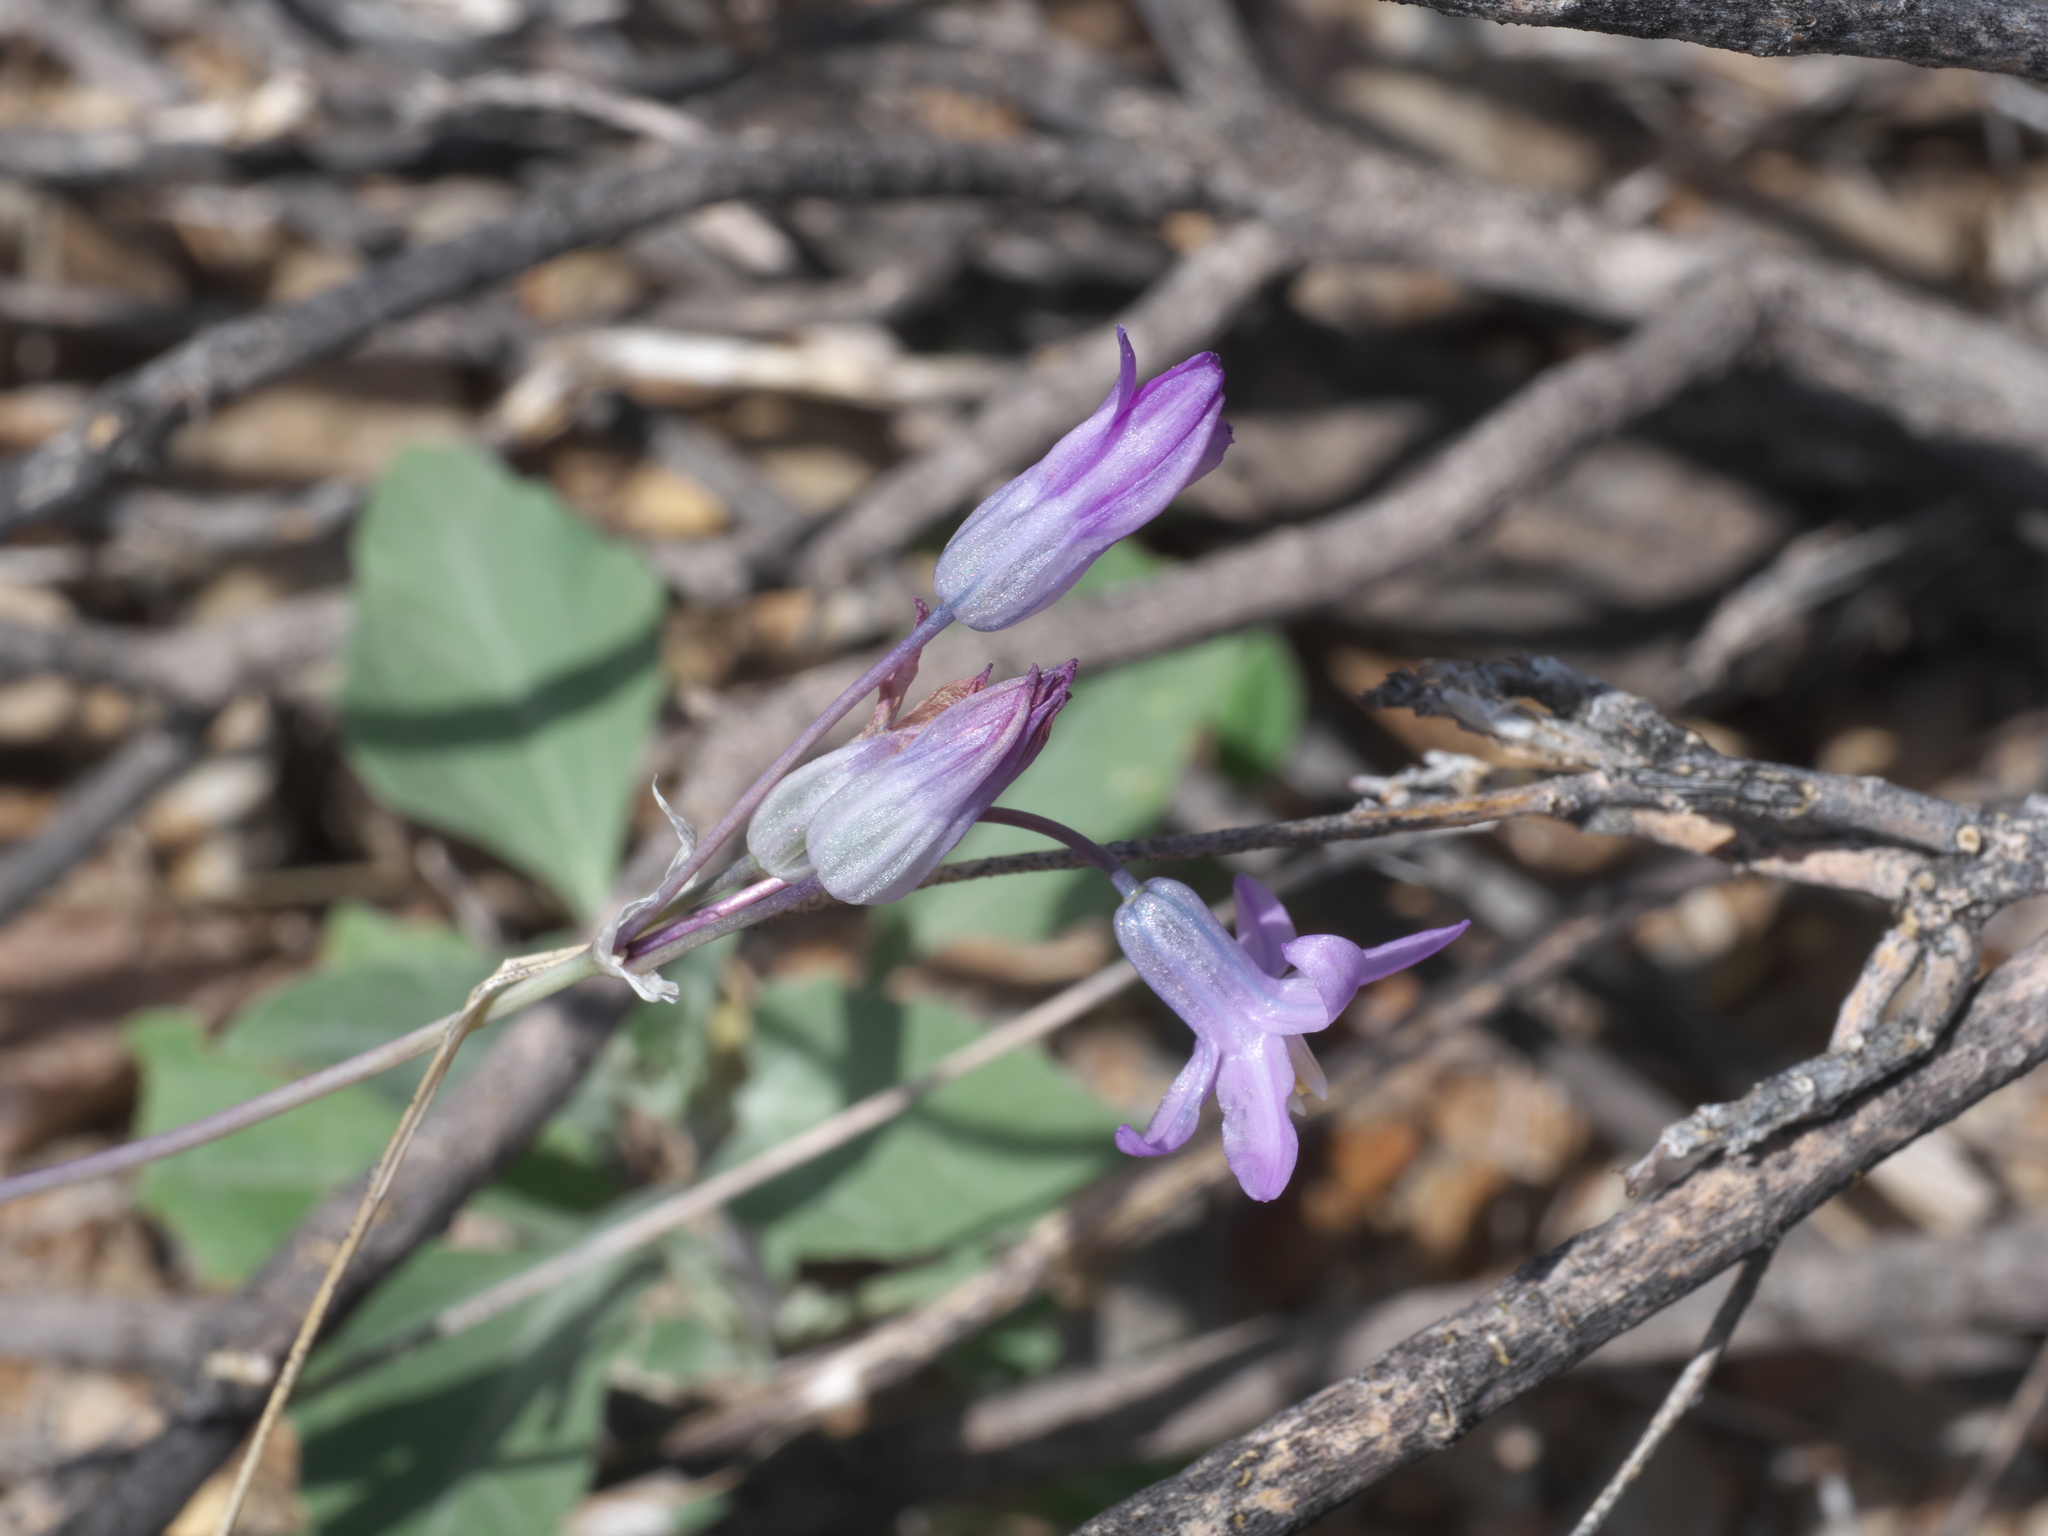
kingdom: Plantae
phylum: Tracheophyta
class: Liliopsida
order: Asparagales
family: Asparagaceae
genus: Dipterostemon
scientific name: Dipterostemon capitatus
